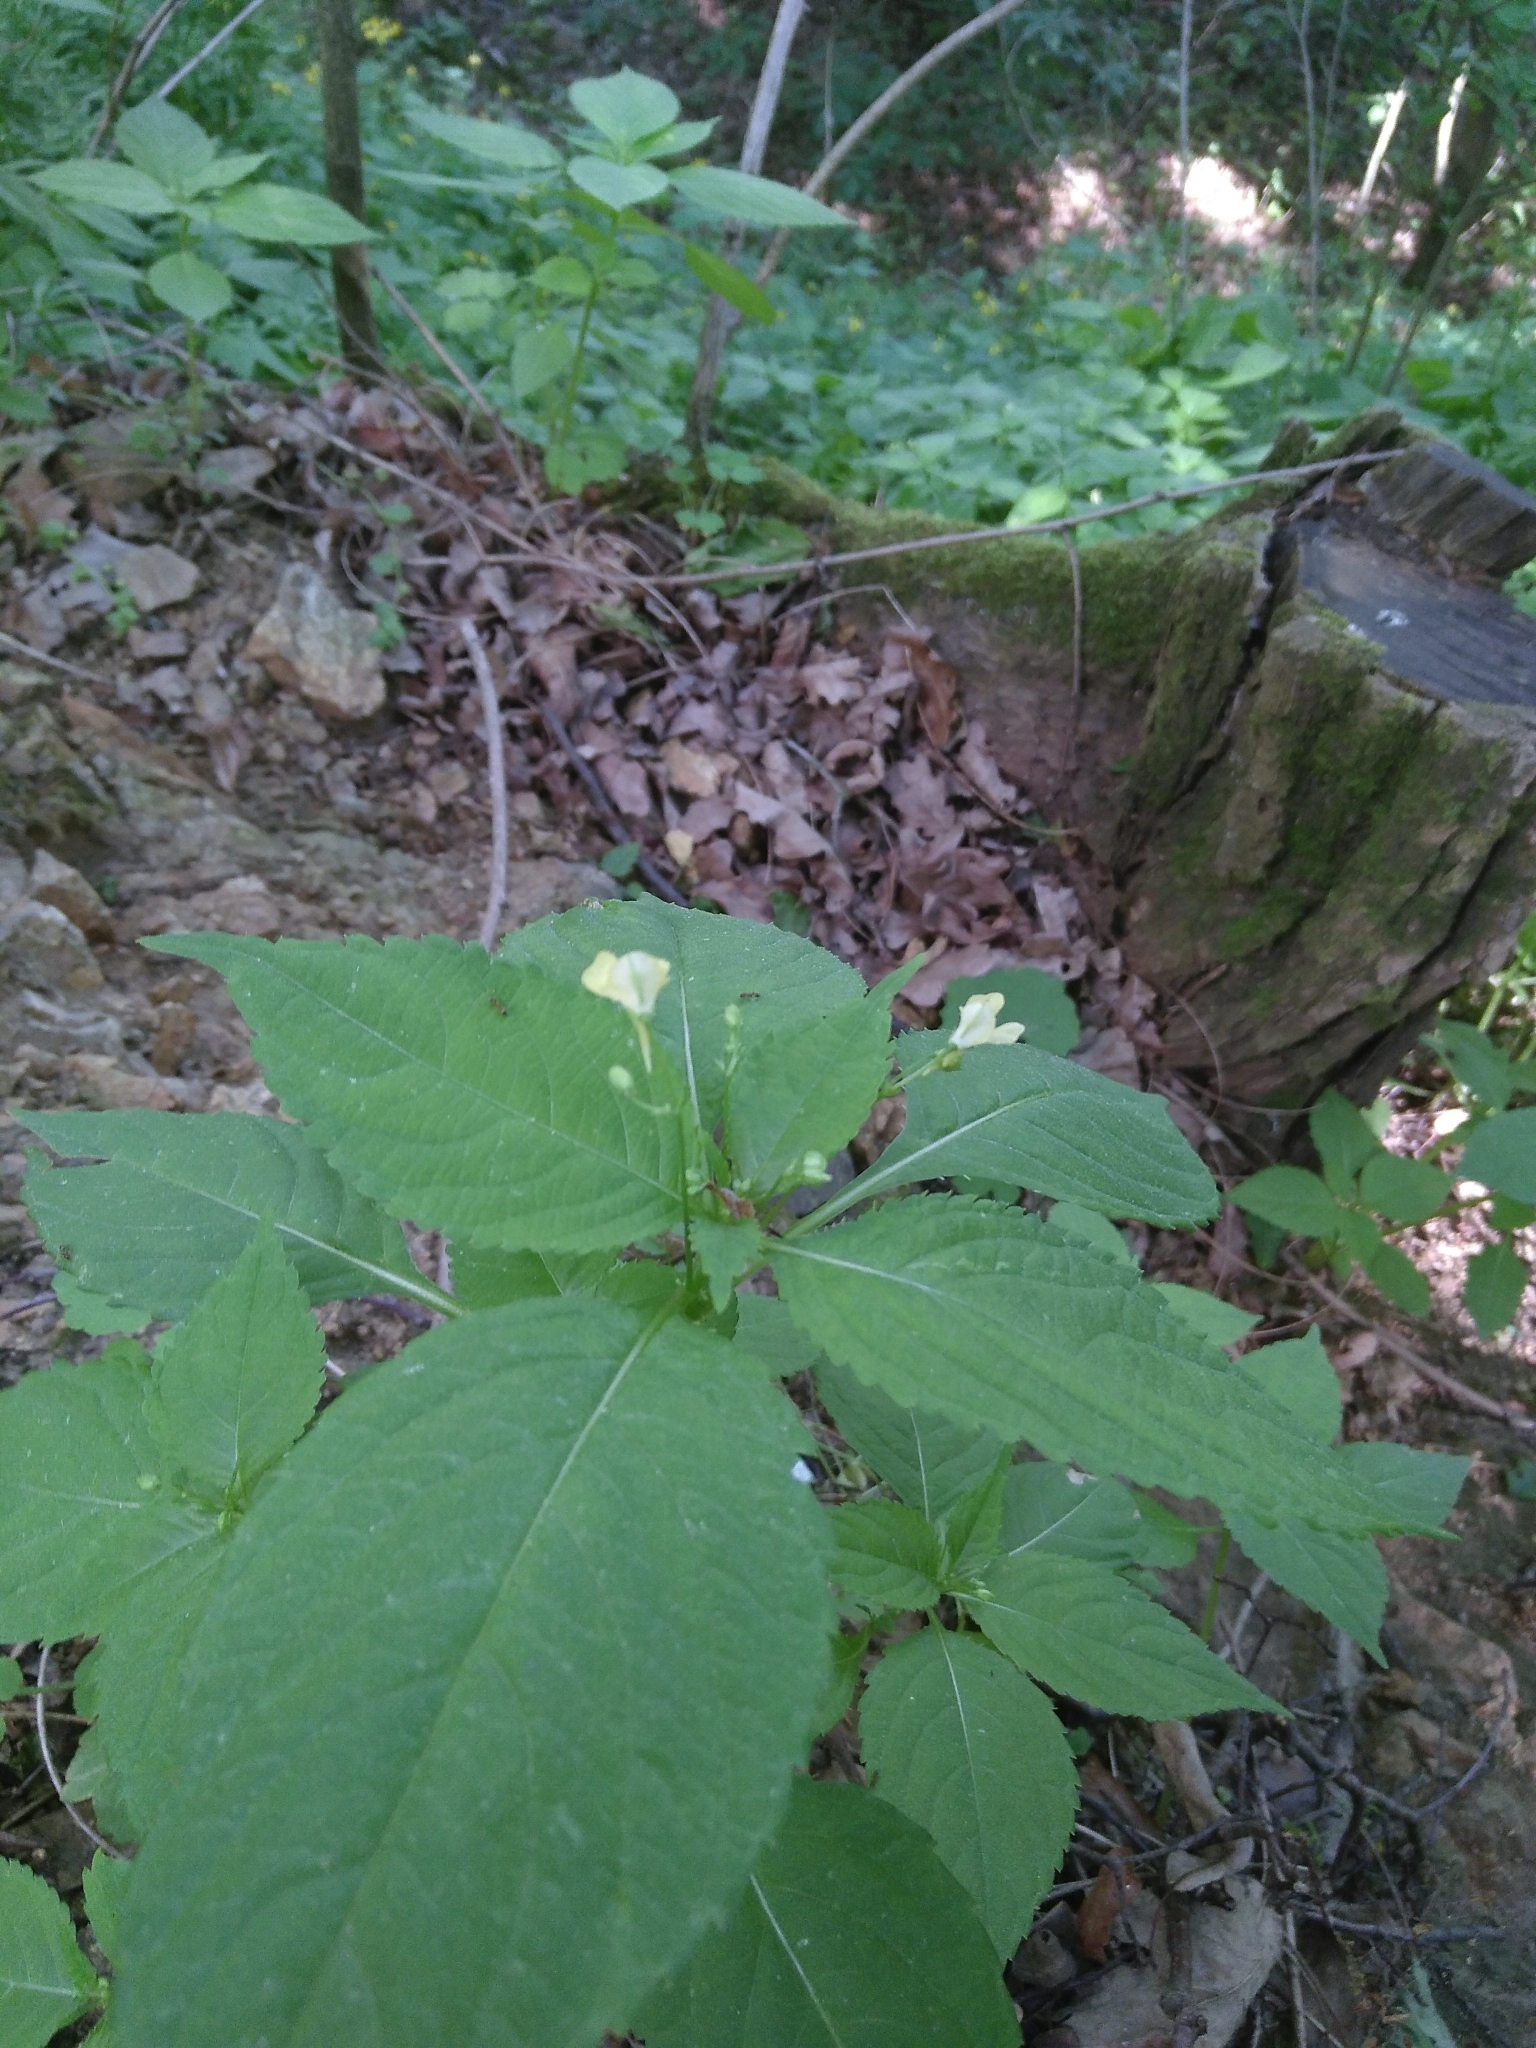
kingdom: Plantae
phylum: Tracheophyta
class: Magnoliopsida
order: Ericales
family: Balsaminaceae
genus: Impatiens
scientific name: Impatiens parviflora
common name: Small balsam
